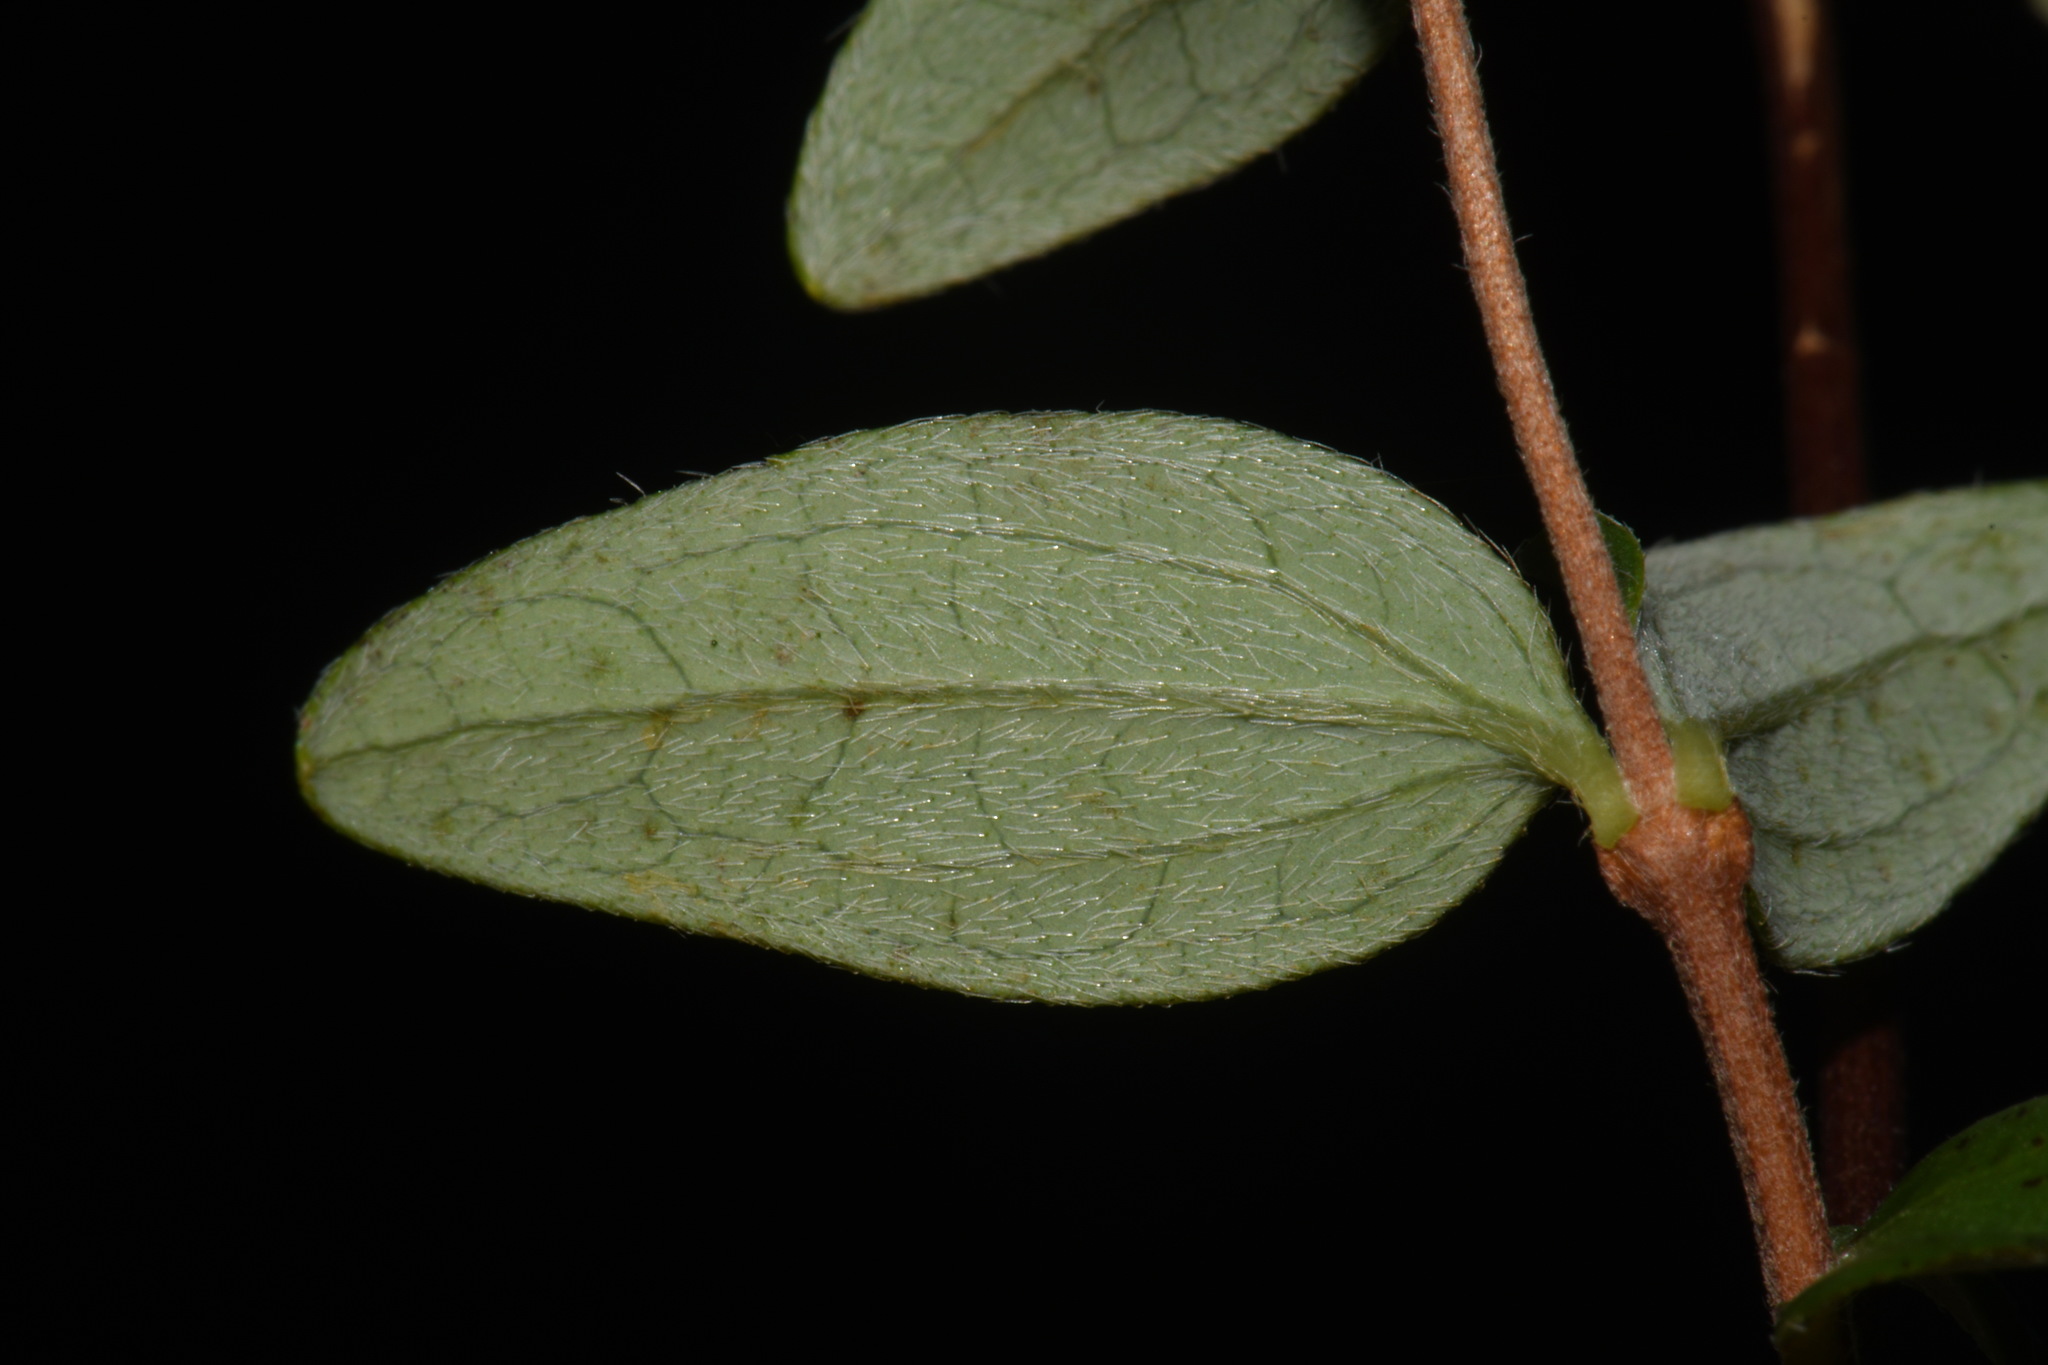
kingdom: Plantae
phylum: Tracheophyta
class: Magnoliopsida
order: Cornales
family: Hydrangeaceae
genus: Philadelphus
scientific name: Philadelphus microphyllus
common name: Desert mock orange
